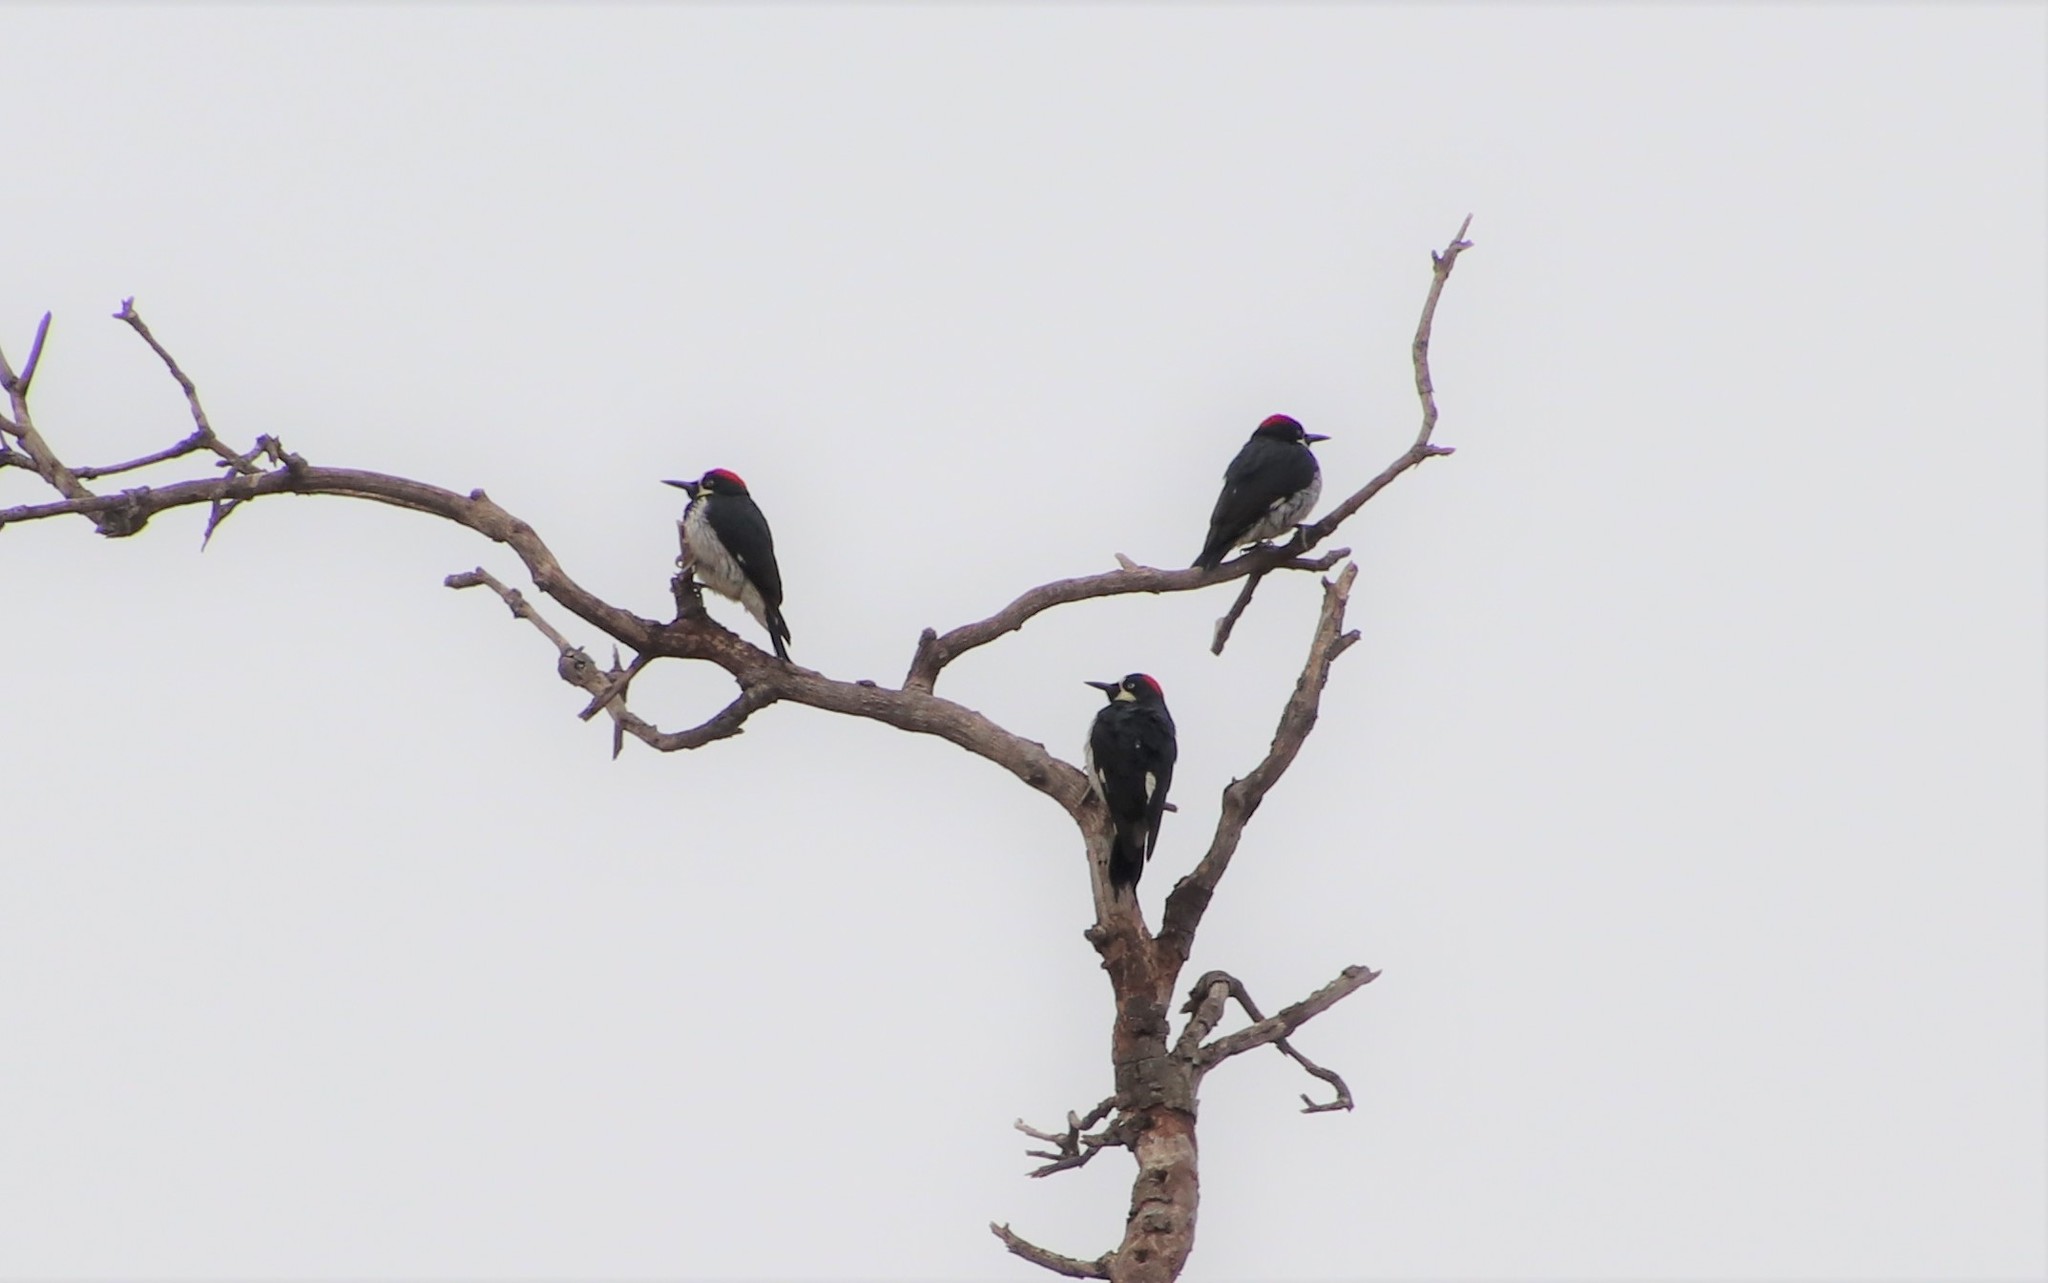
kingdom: Animalia
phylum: Chordata
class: Aves
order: Piciformes
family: Picidae
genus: Melanerpes
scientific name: Melanerpes formicivorus
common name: Acorn woodpecker
